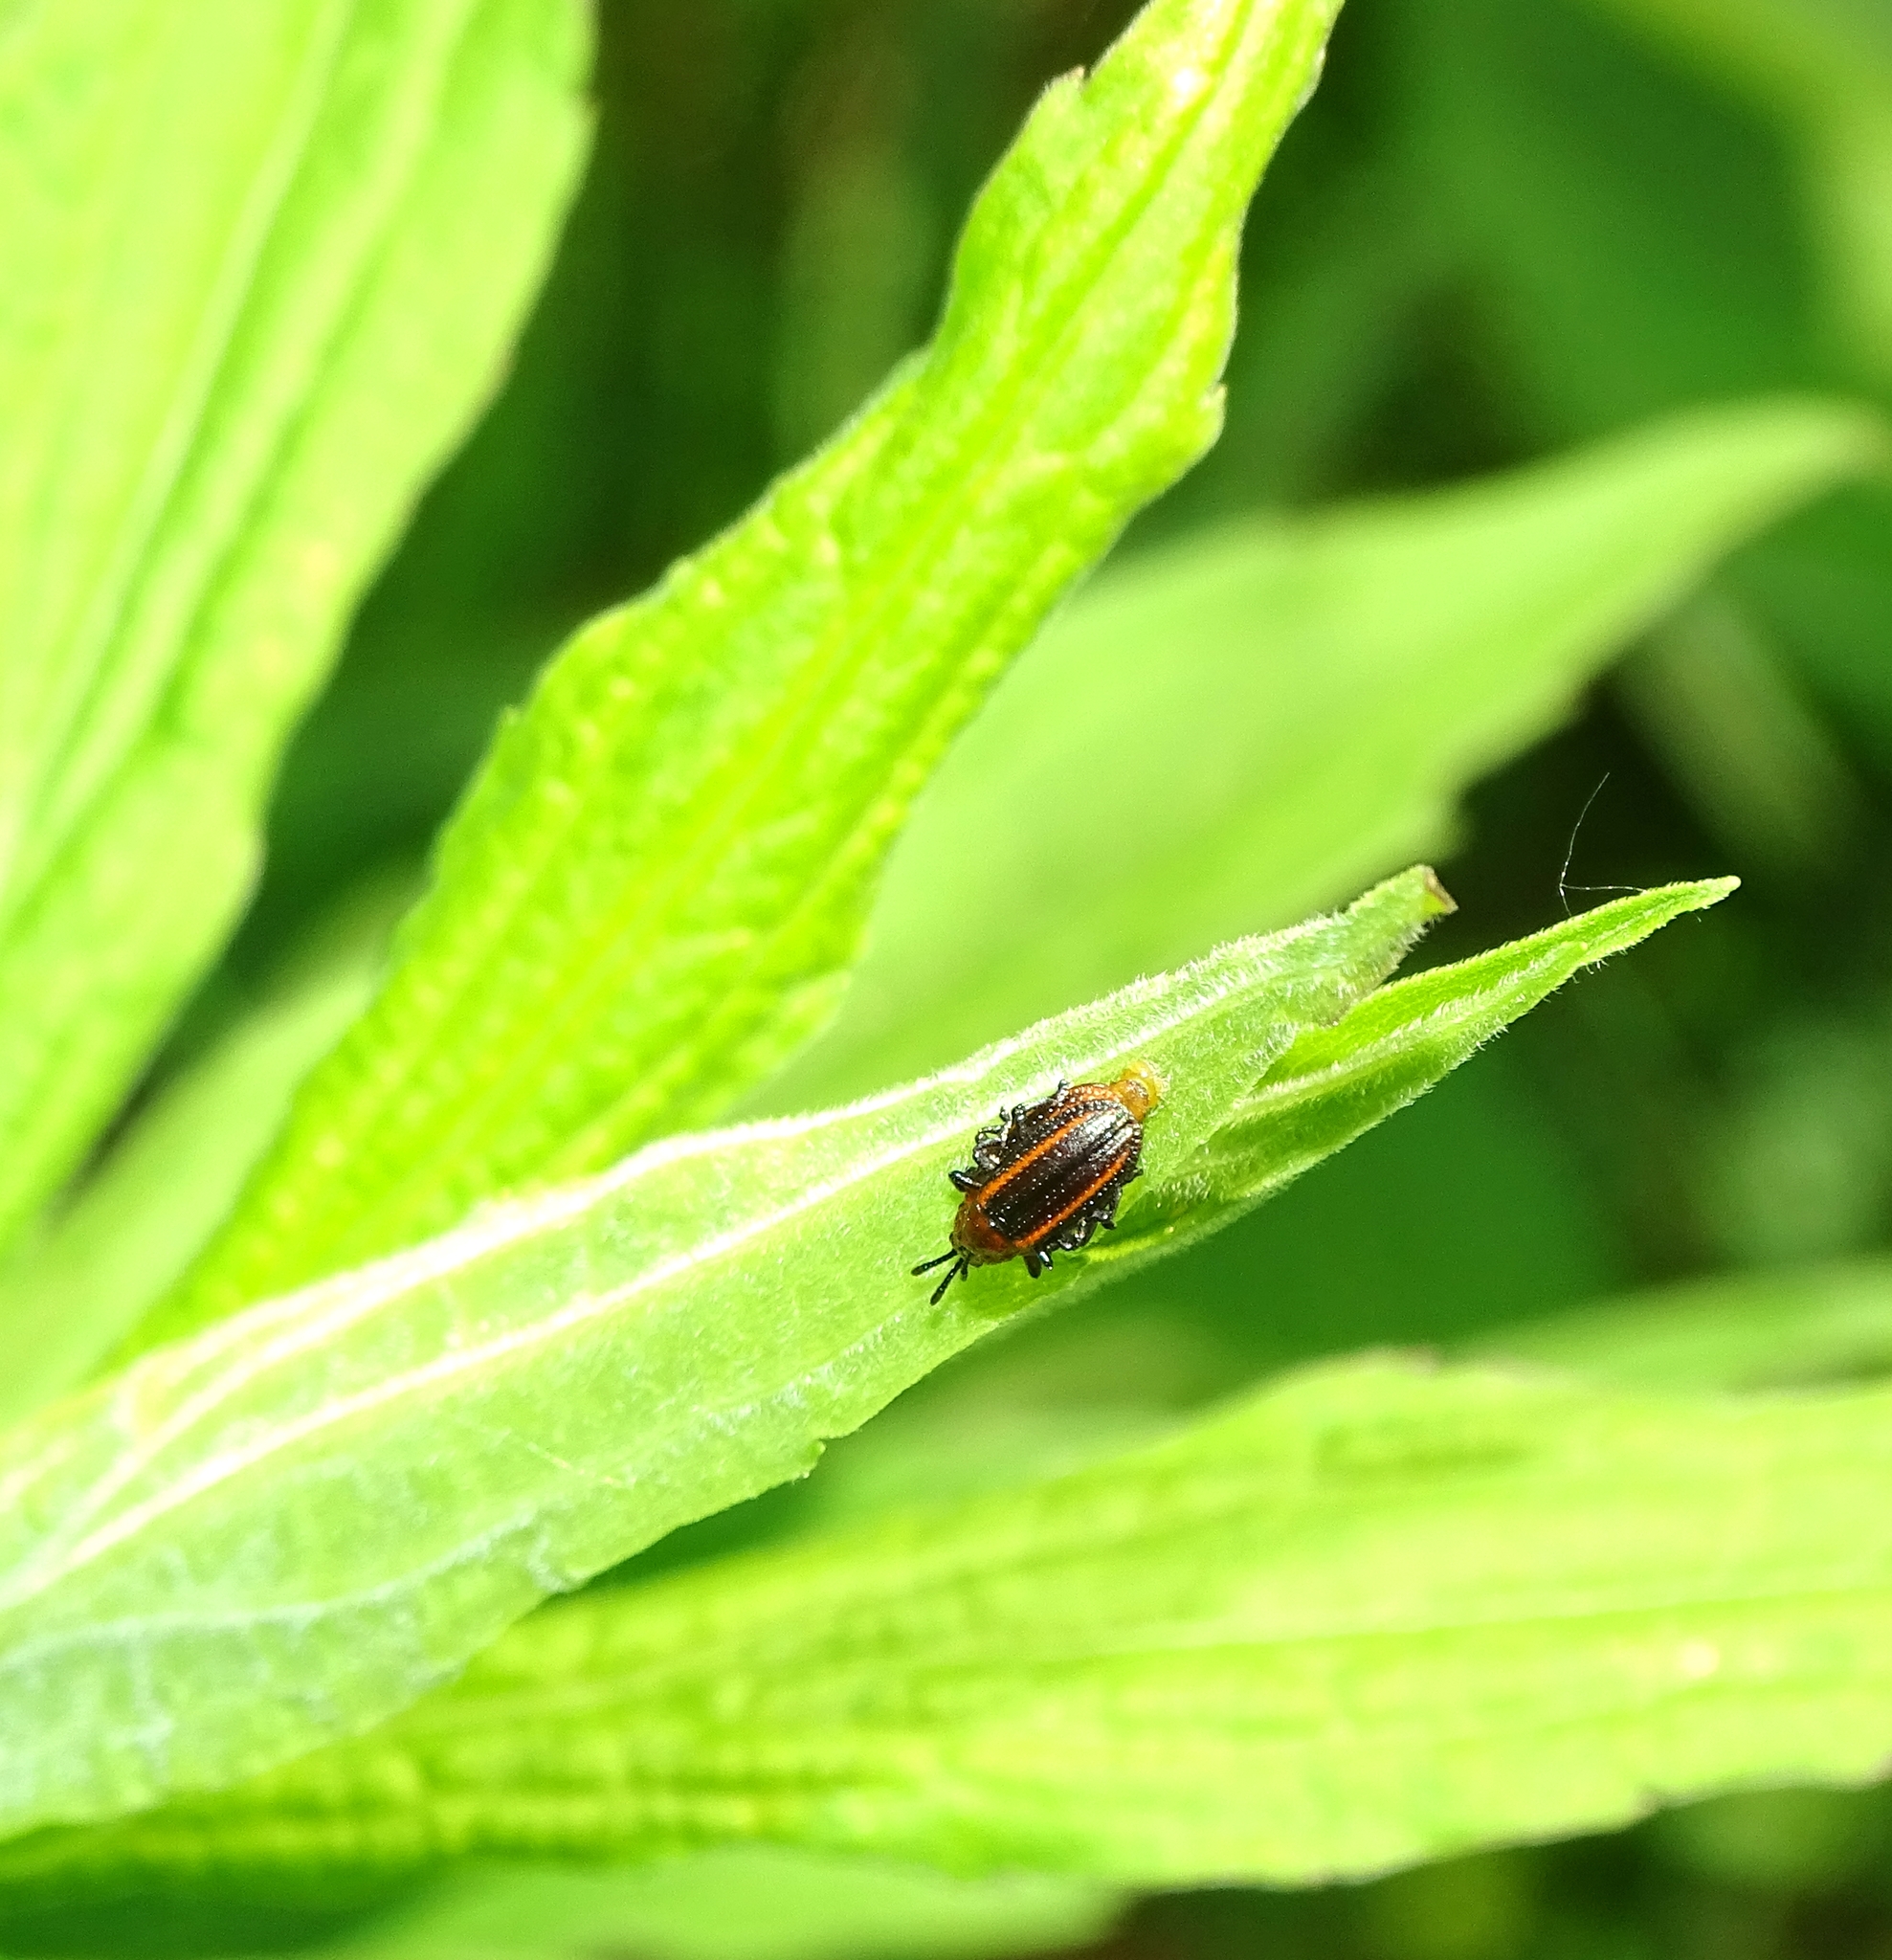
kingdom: Animalia
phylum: Arthropoda
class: Insecta
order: Coleoptera
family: Chrysomelidae
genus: Microrhopala
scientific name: Microrhopala vittata
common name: Goldenrod leaf miner beetle
